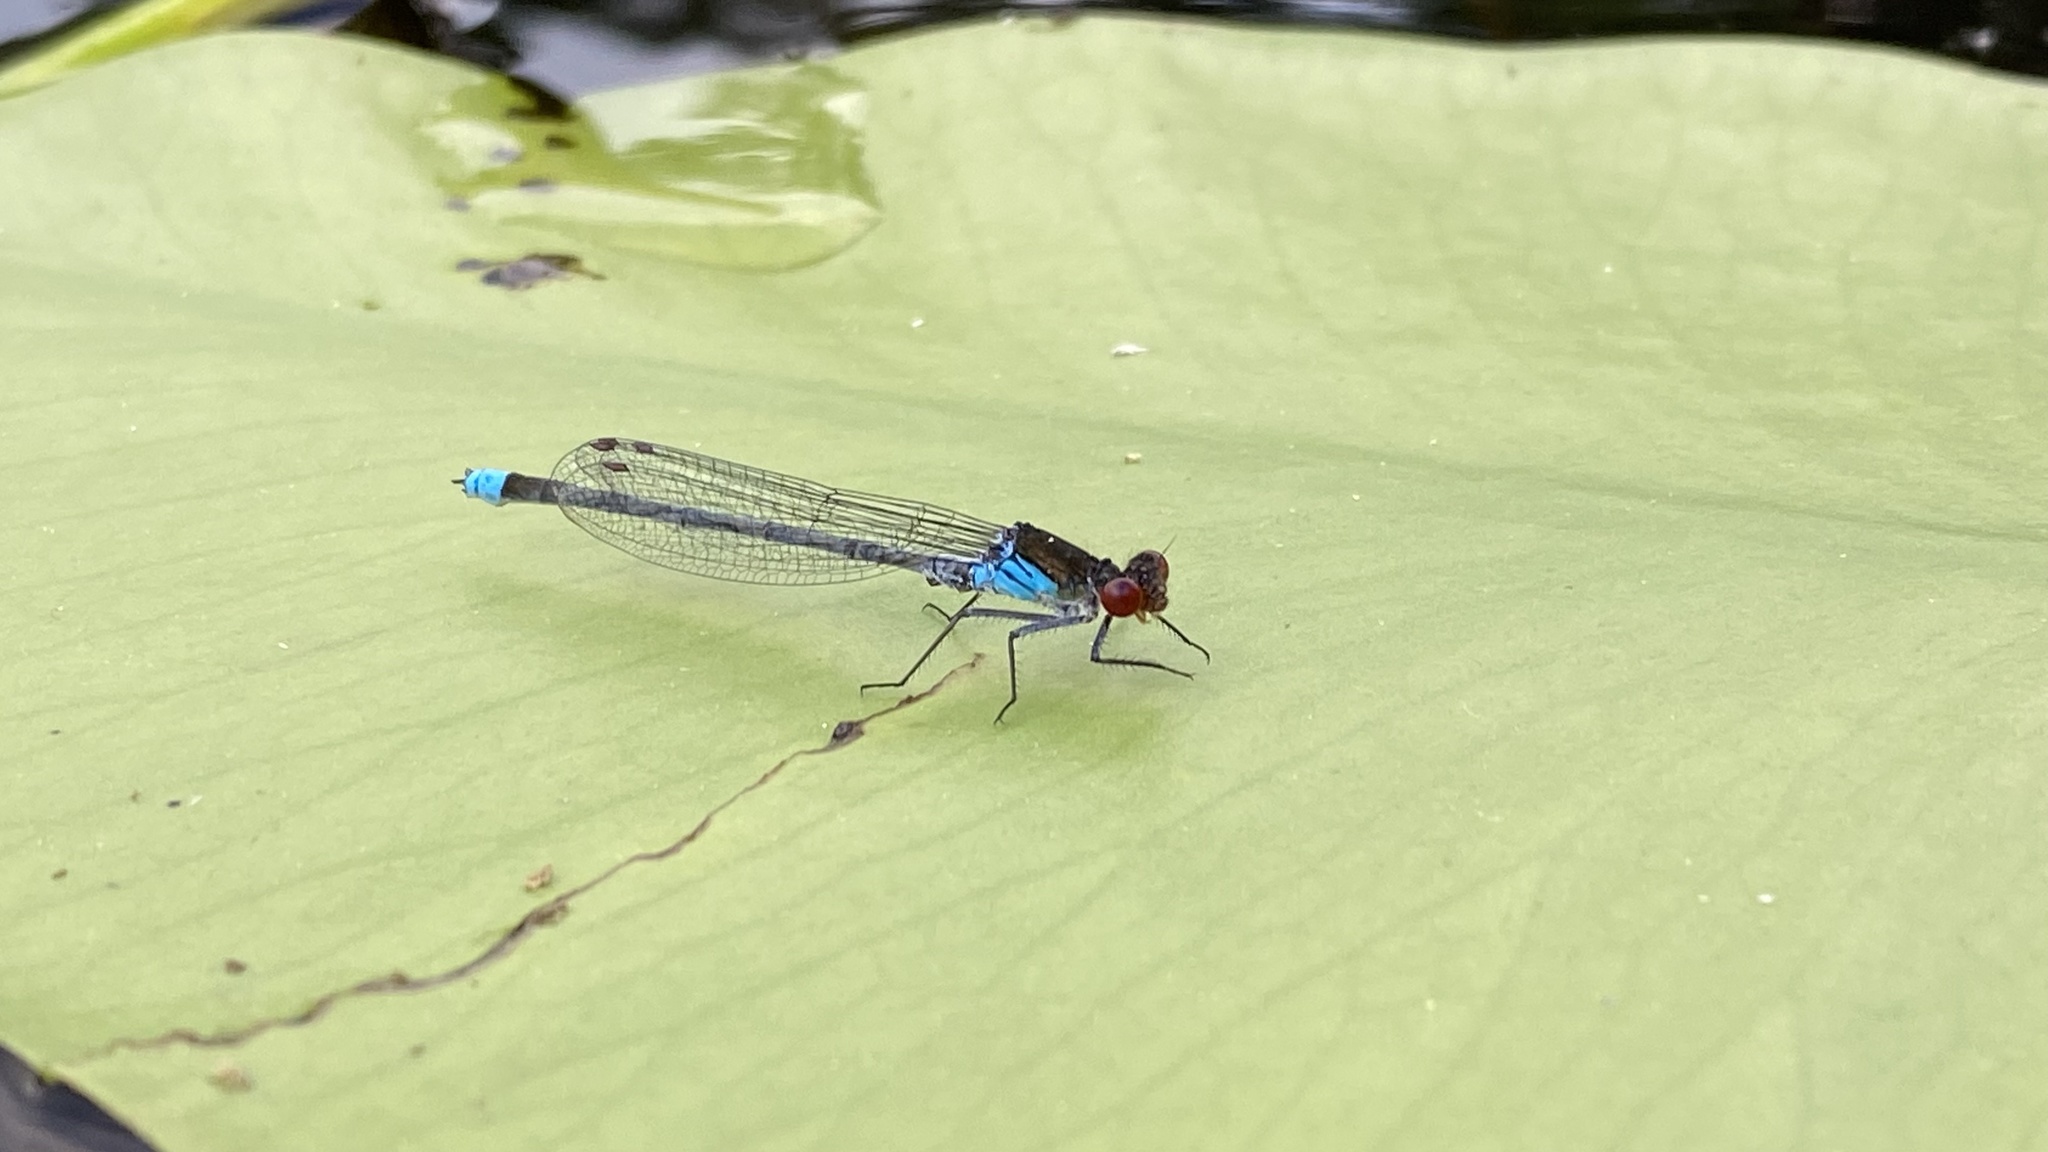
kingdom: Animalia
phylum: Arthropoda
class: Insecta
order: Odonata
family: Coenagrionidae
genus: Erythromma
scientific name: Erythromma najas
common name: Red-eyed damselfly
